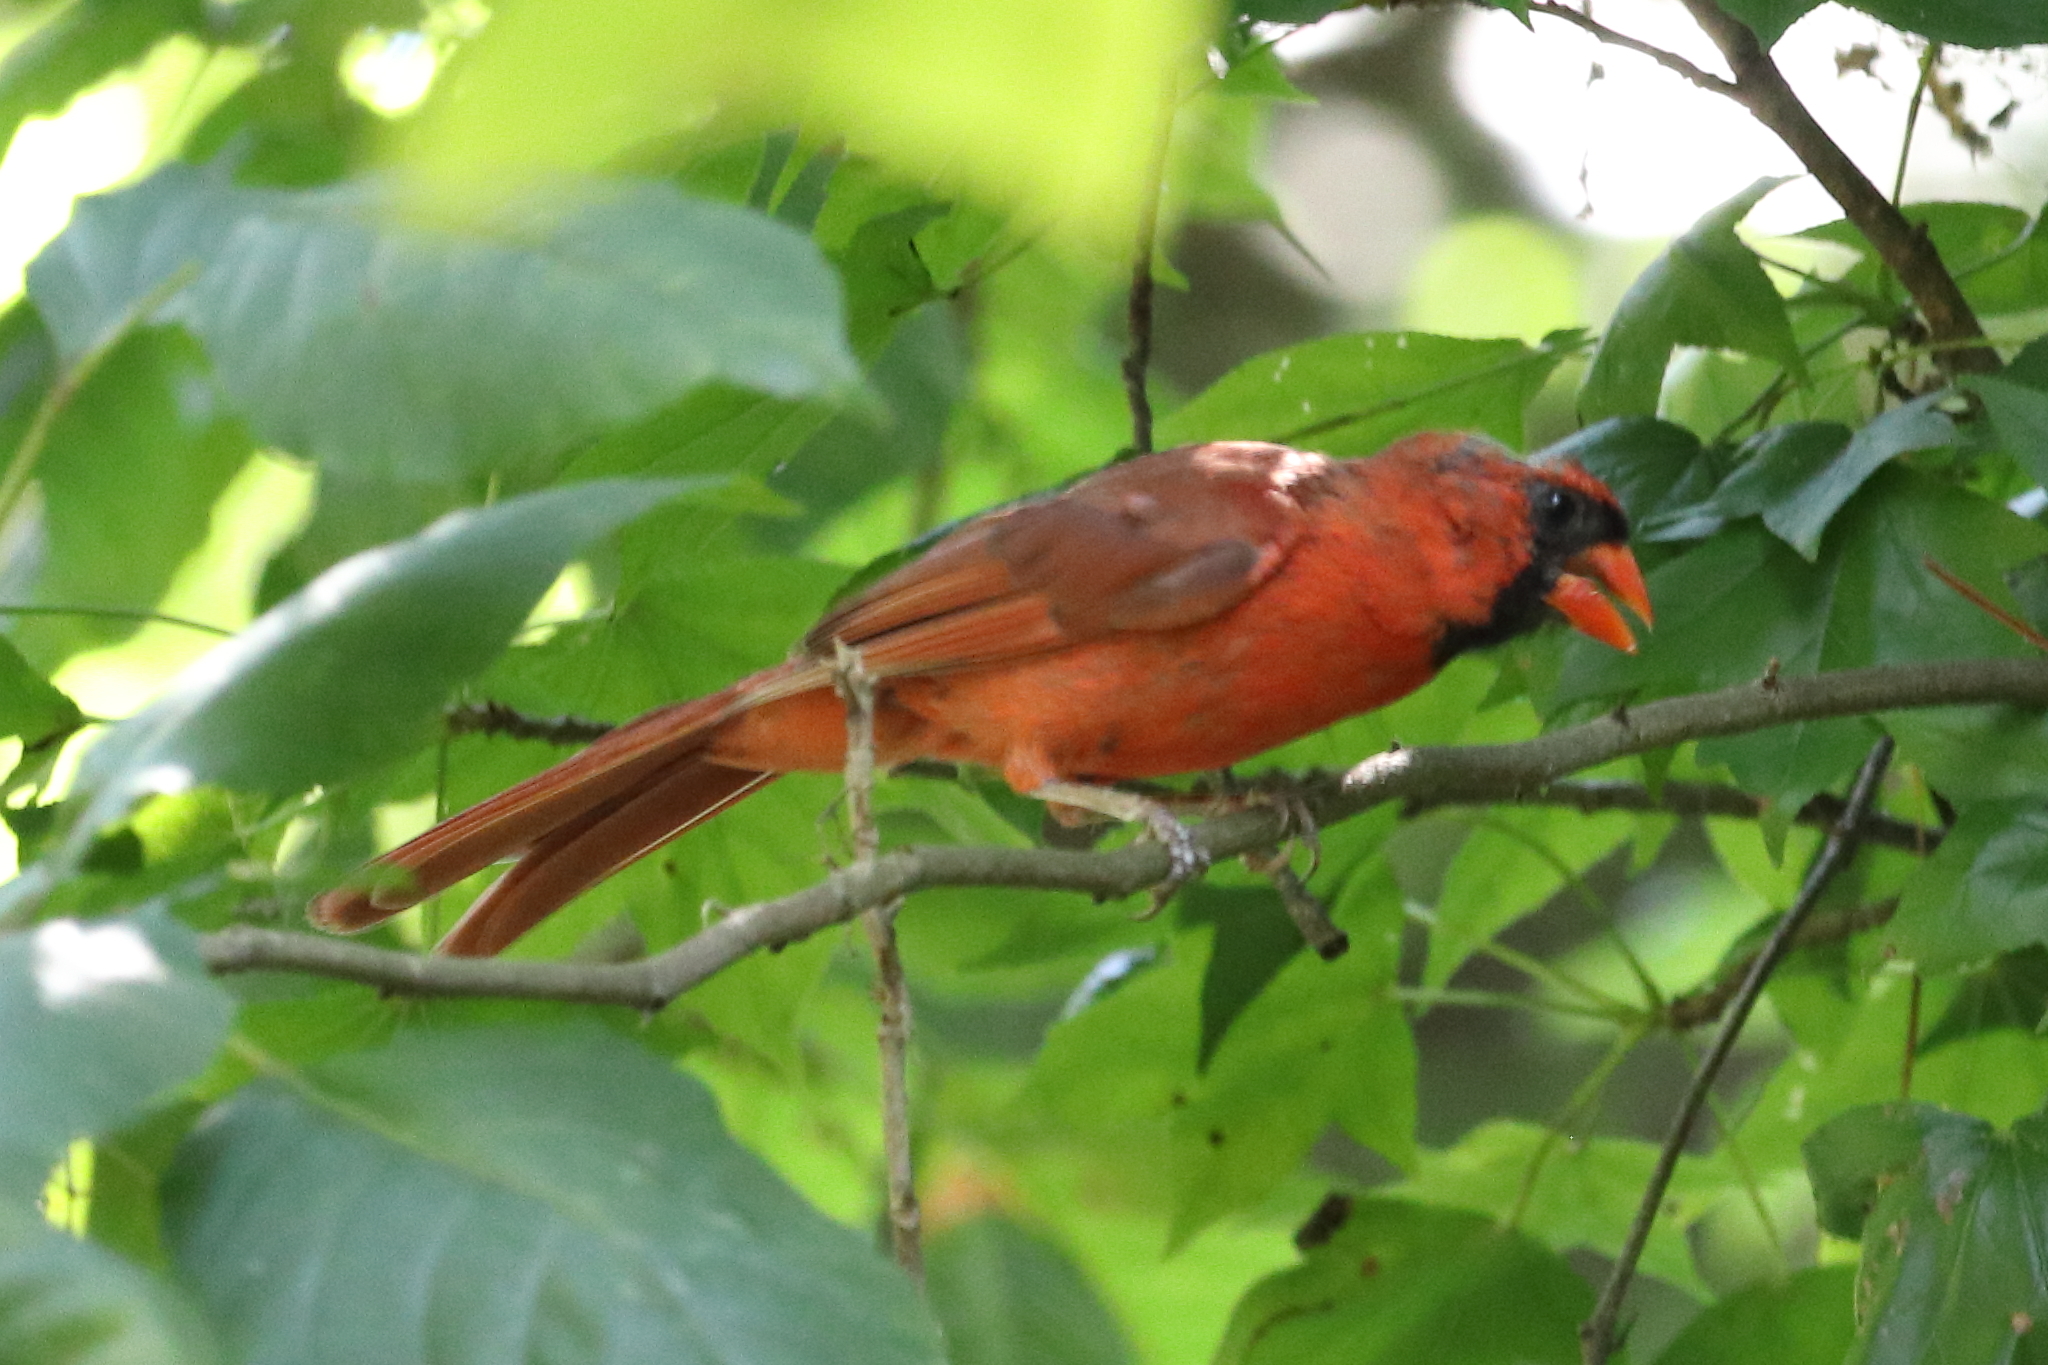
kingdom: Animalia
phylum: Chordata
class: Aves
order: Passeriformes
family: Cardinalidae
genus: Cardinalis
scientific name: Cardinalis cardinalis
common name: Northern cardinal
